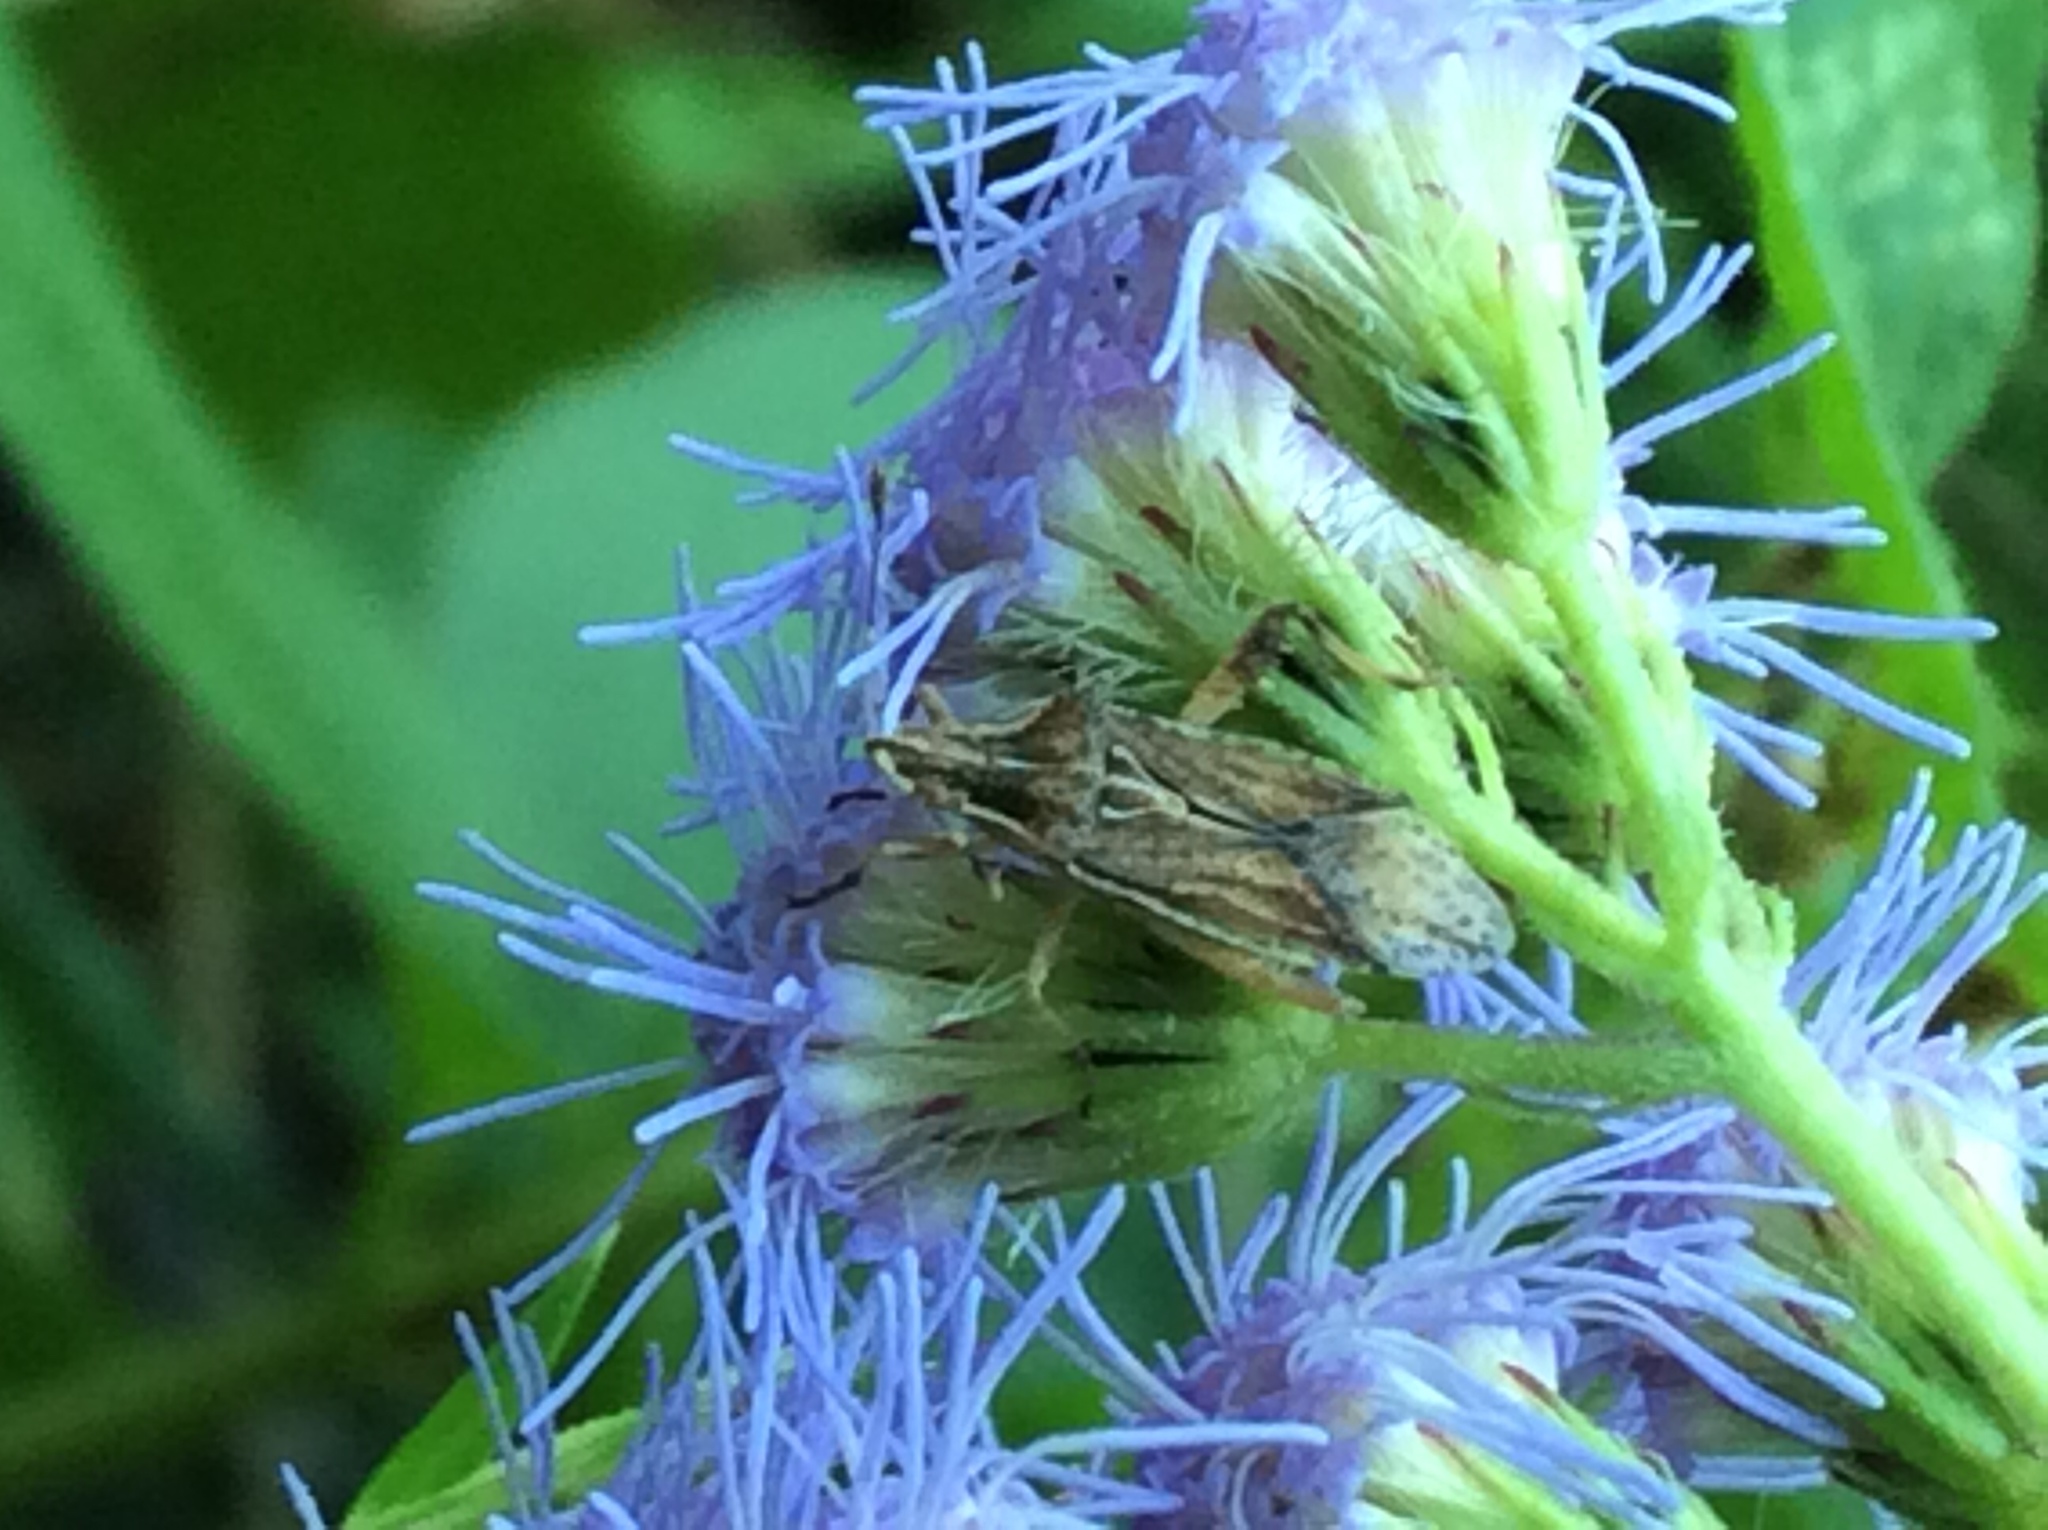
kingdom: Plantae
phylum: Tracheophyta
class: Magnoliopsida
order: Asterales
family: Asteraceae
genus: Conoclinium
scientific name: Conoclinium coelestinum
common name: Blue mistflower
